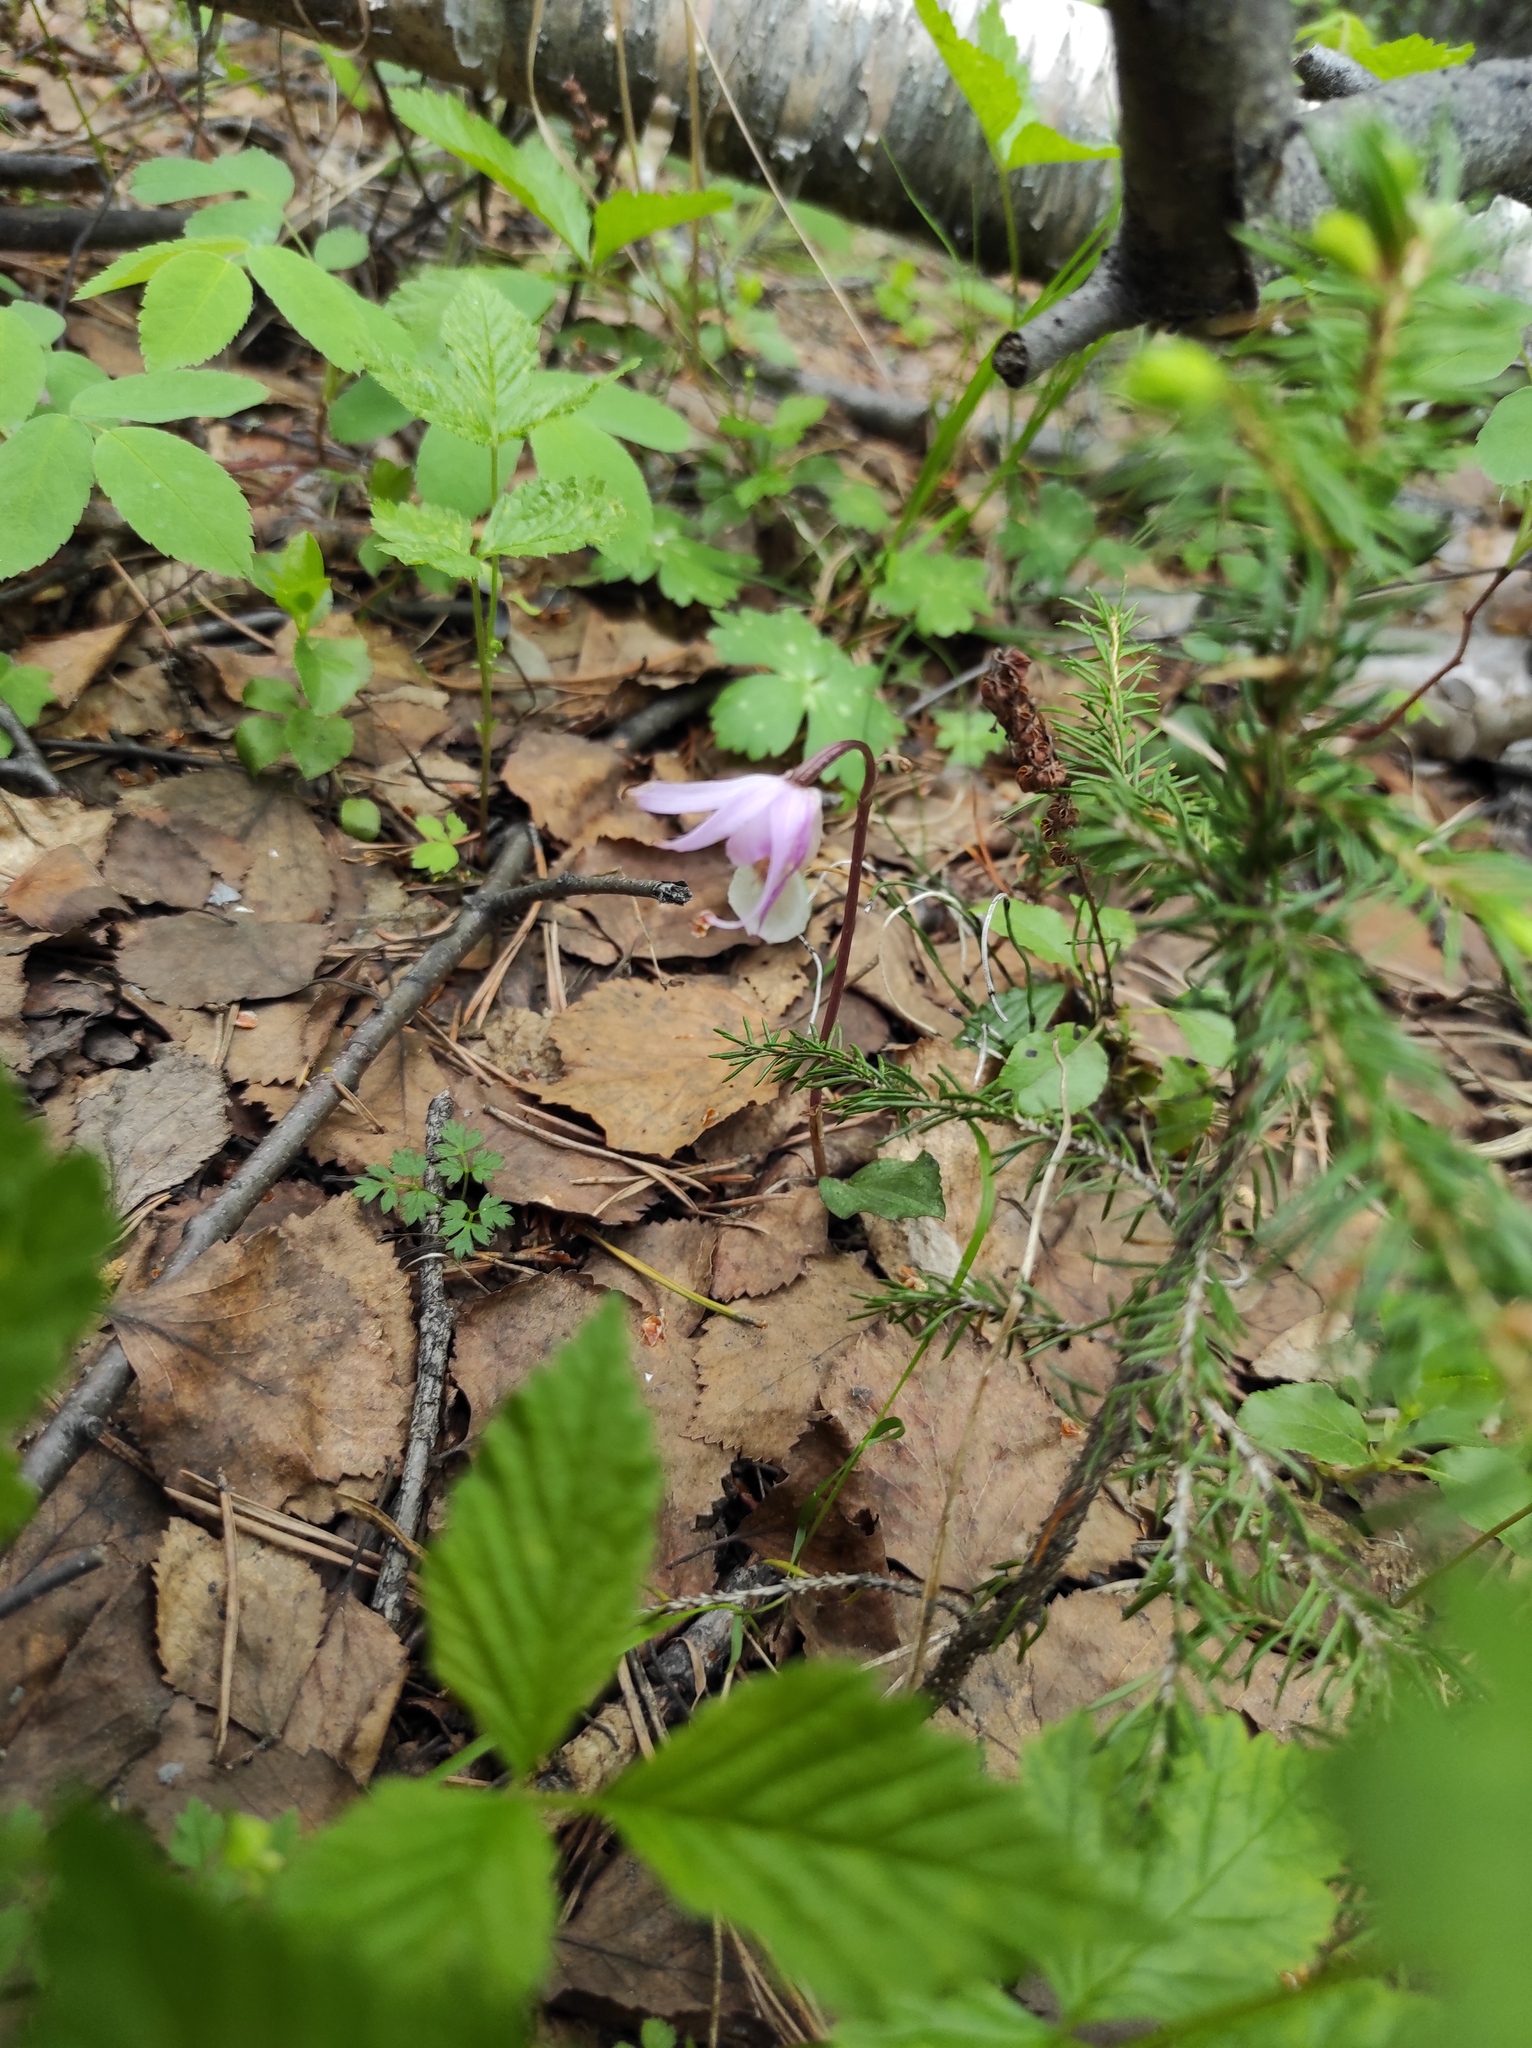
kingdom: Plantae
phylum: Tracheophyta
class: Liliopsida
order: Asparagales
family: Orchidaceae
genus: Calypso
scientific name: Calypso bulbosa
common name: Calypso
